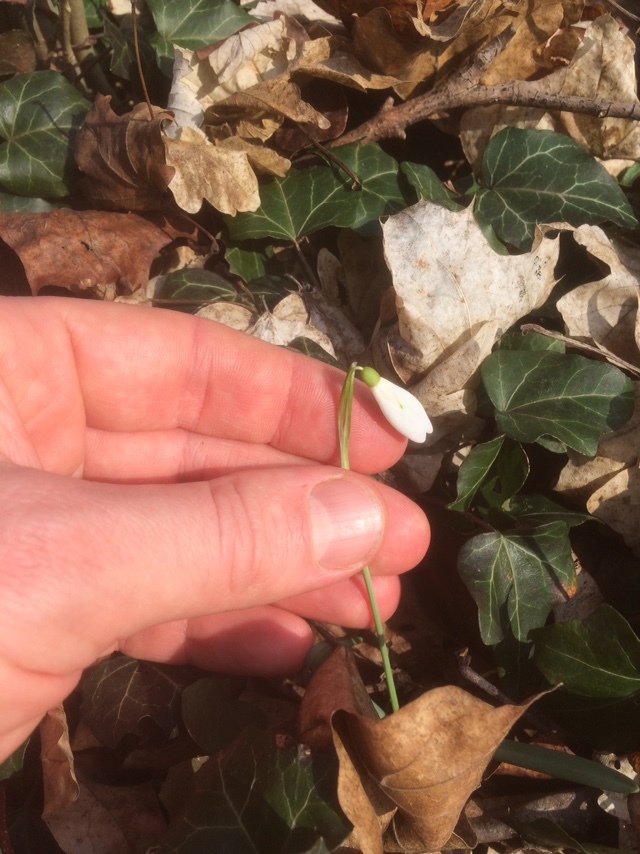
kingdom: Plantae
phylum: Tracheophyta
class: Liliopsida
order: Asparagales
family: Amaryllidaceae
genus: Galanthus
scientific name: Galanthus nivalis
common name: Snowdrop
